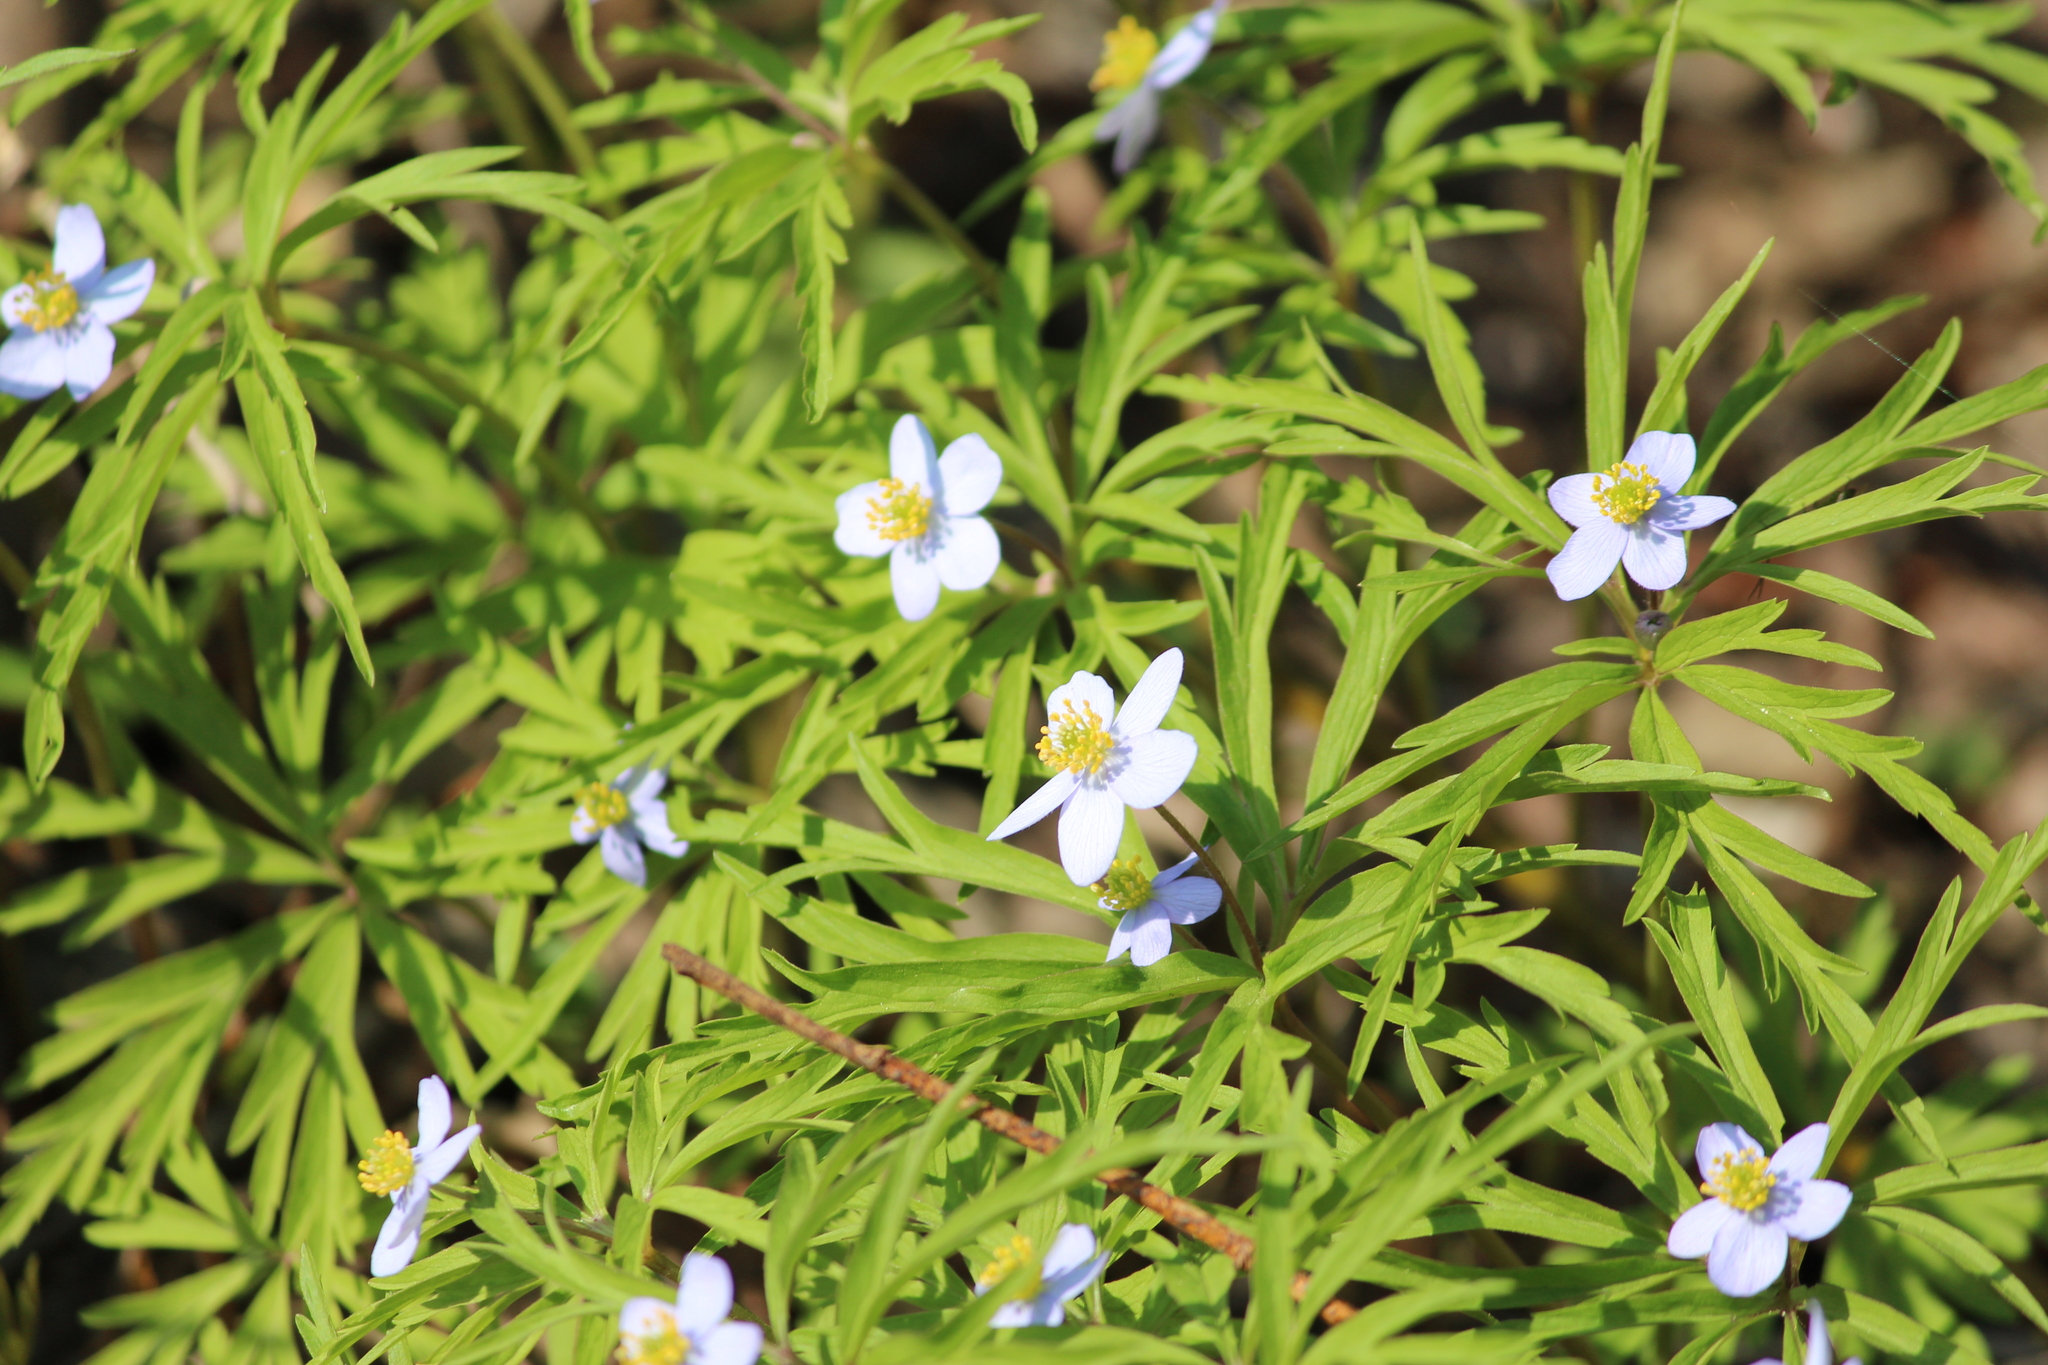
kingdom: Plantae
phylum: Tracheophyta
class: Magnoliopsida
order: Ranunculales
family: Ranunculaceae
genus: Anemone
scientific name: Anemone caerulea
